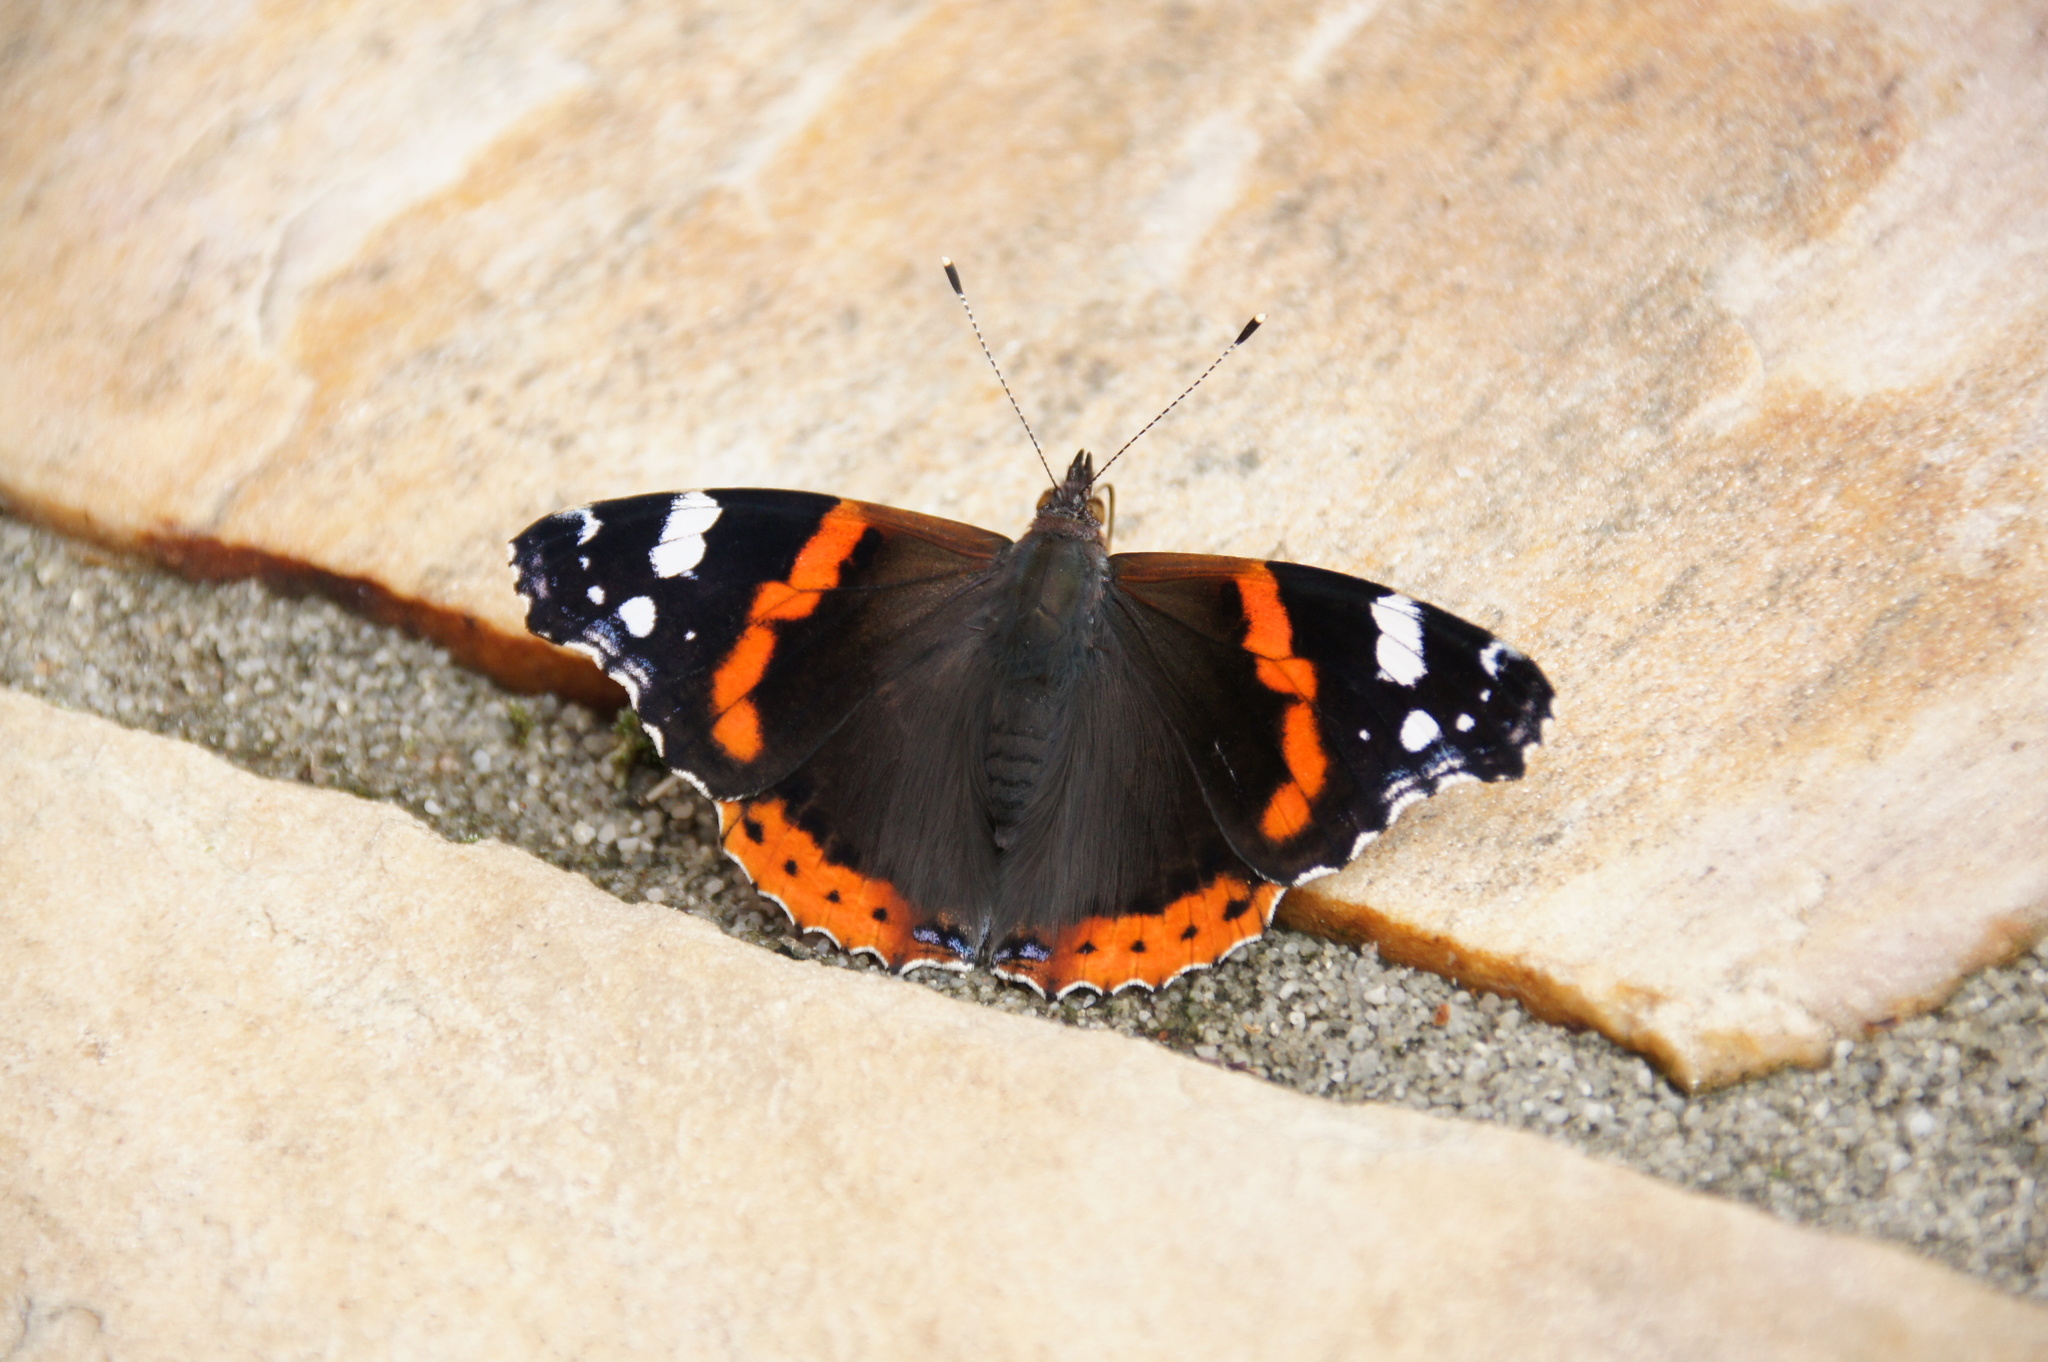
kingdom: Animalia
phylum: Arthropoda
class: Insecta
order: Lepidoptera
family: Nymphalidae
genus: Vanessa
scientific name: Vanessa atalanta
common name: Red admiral
